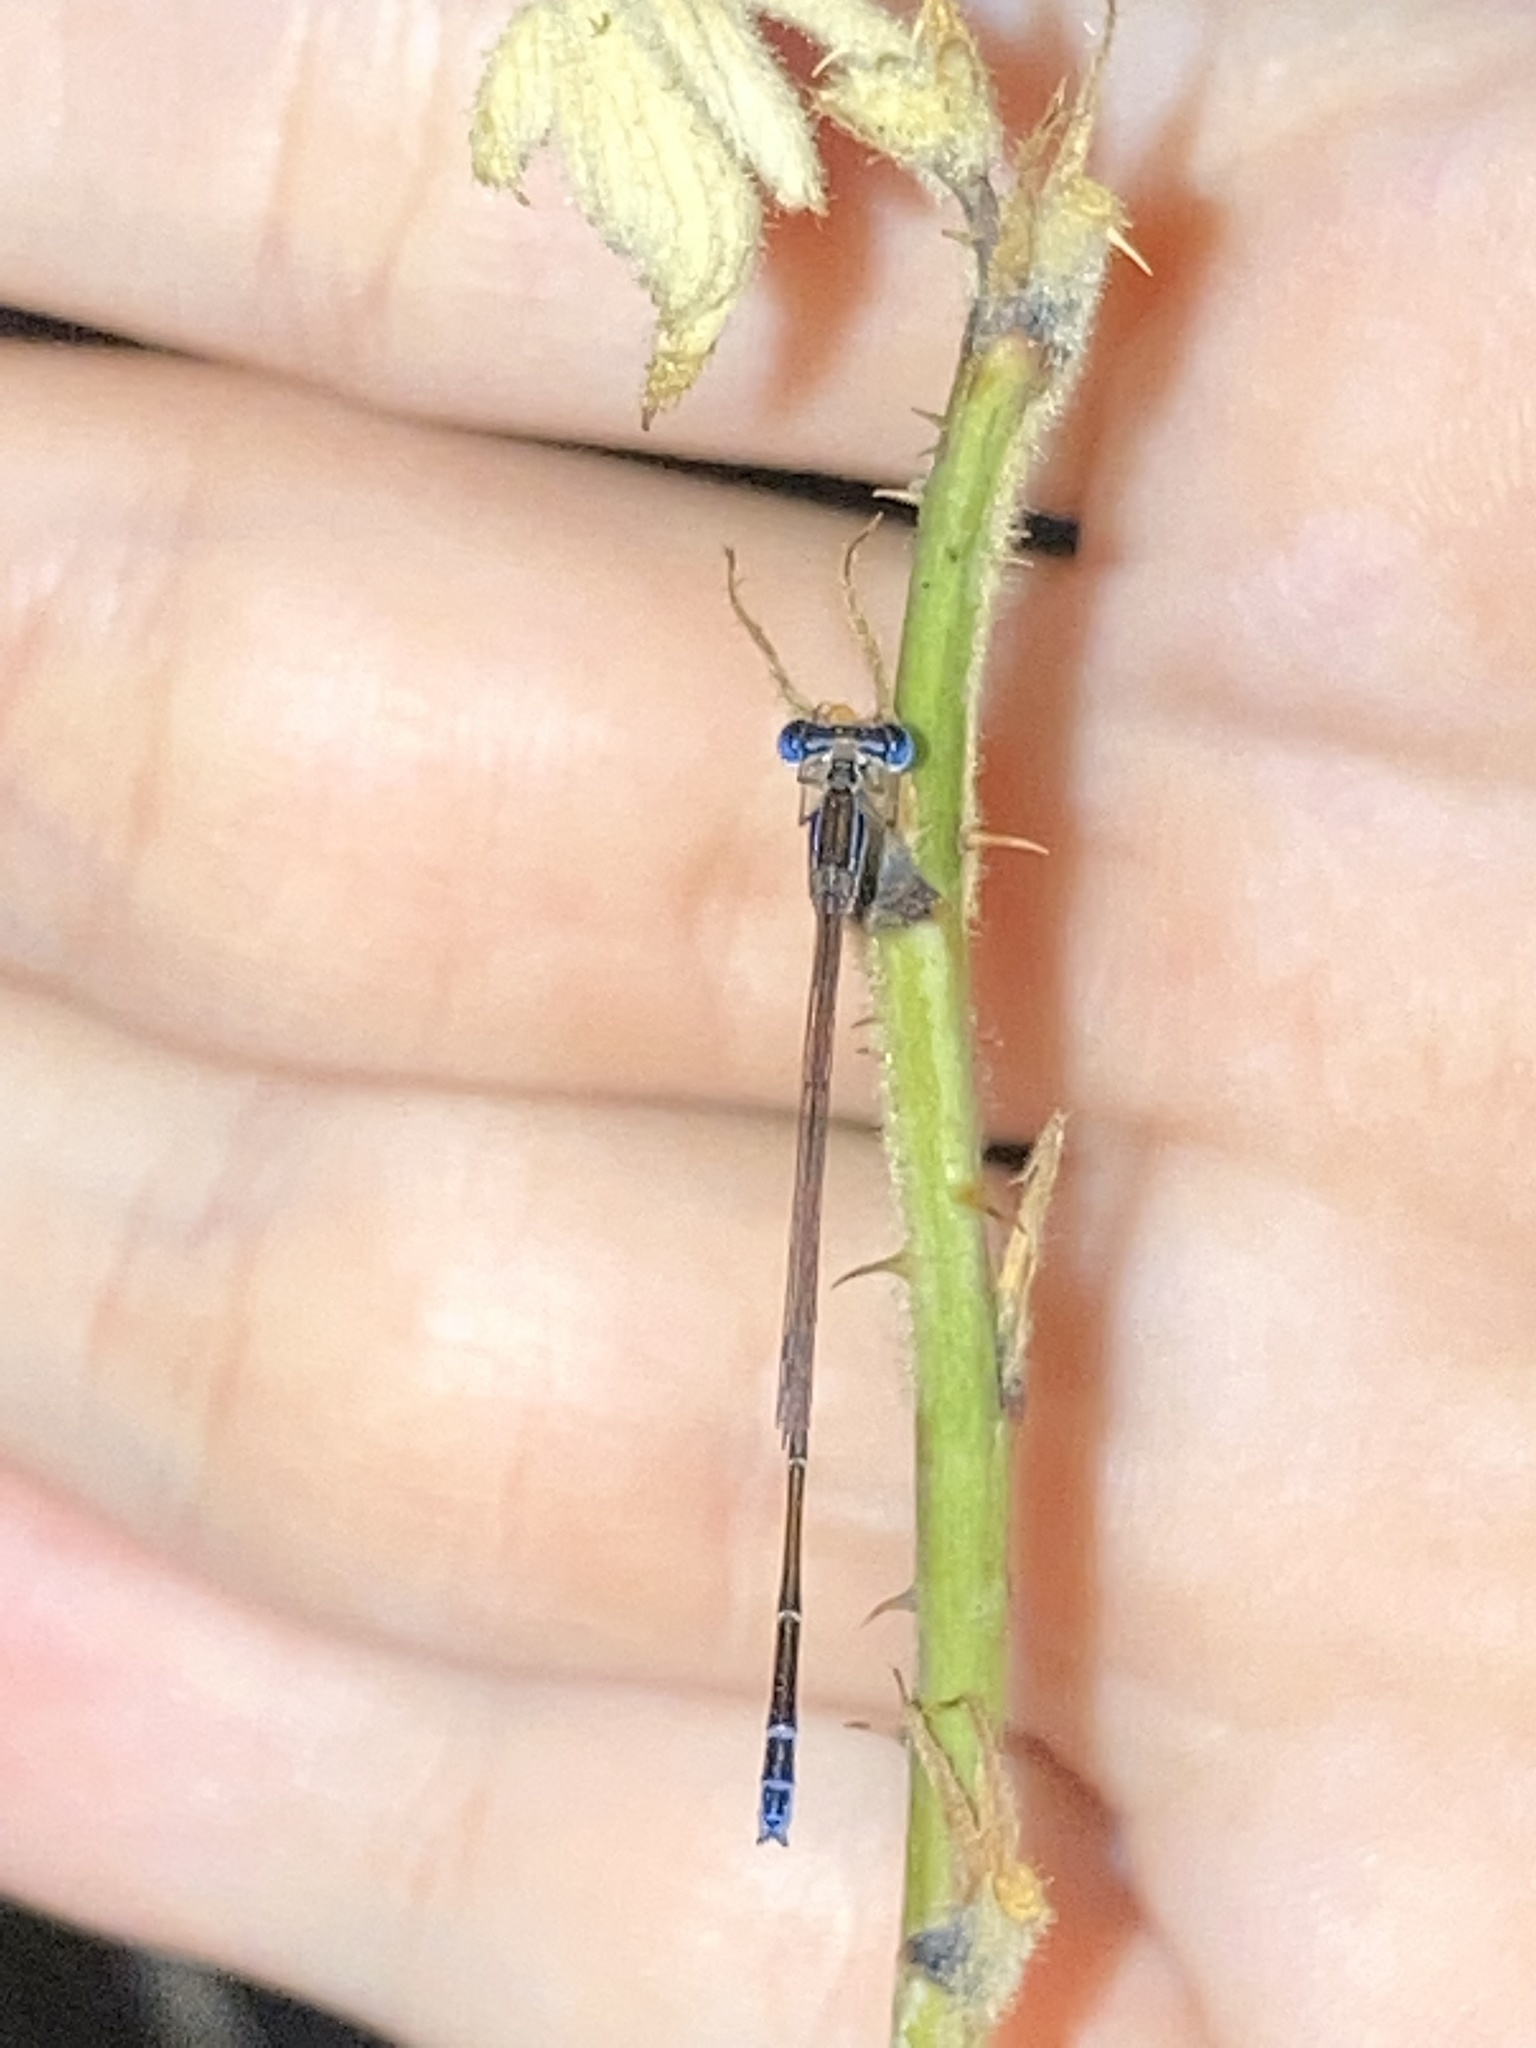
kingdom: Animalia
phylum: Arthropoda
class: Insecta
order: Odonata
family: Coenagrionidae
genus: Nehalennia
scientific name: Nehalennia pallidula
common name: Everglades sprite
